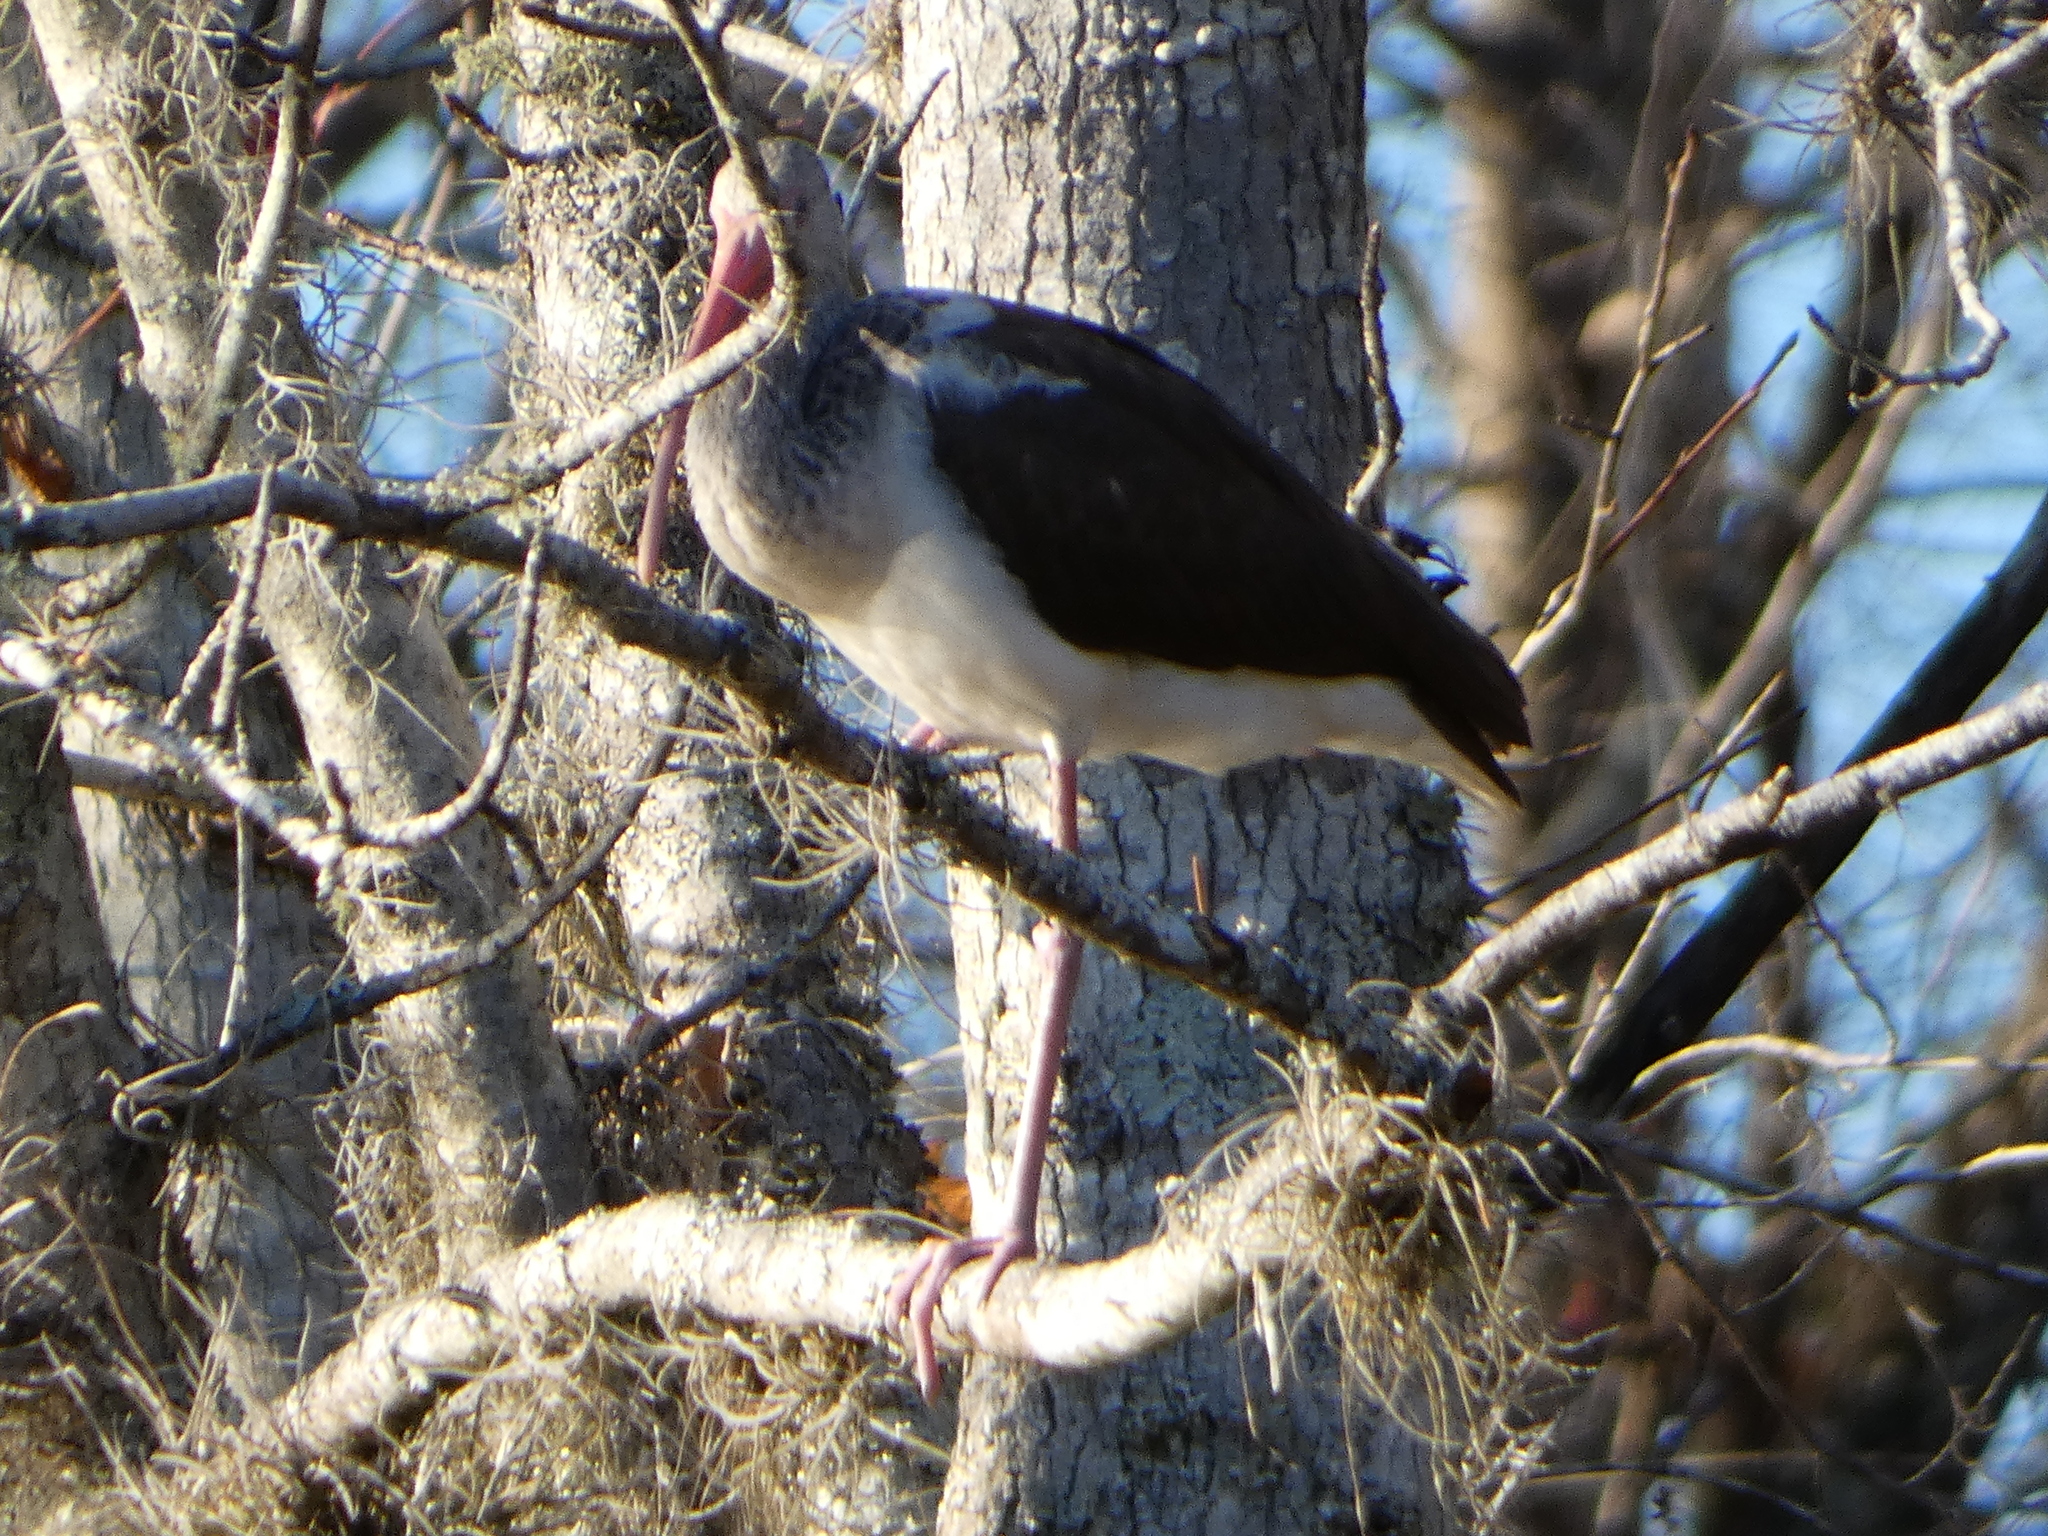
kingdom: Animalia
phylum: Chordata
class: Aves
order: Pelecaniformes
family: Threskiornithidae
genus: Eudocimus
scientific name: Eudocimus albus
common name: White ibis
